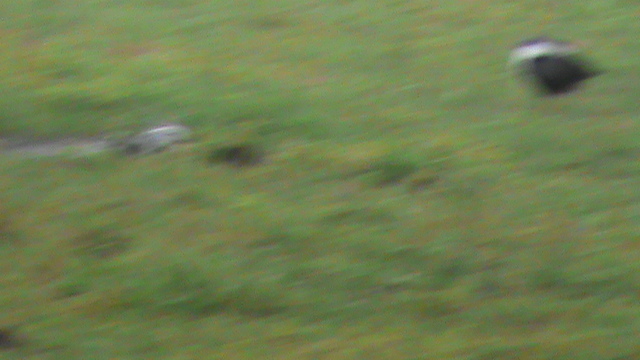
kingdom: Animalia
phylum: Chordata
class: Aves
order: Gruiformes
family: Rallidae
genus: Amaurornis
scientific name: Amaurornis phoenicurus
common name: White-breasted waterhen
